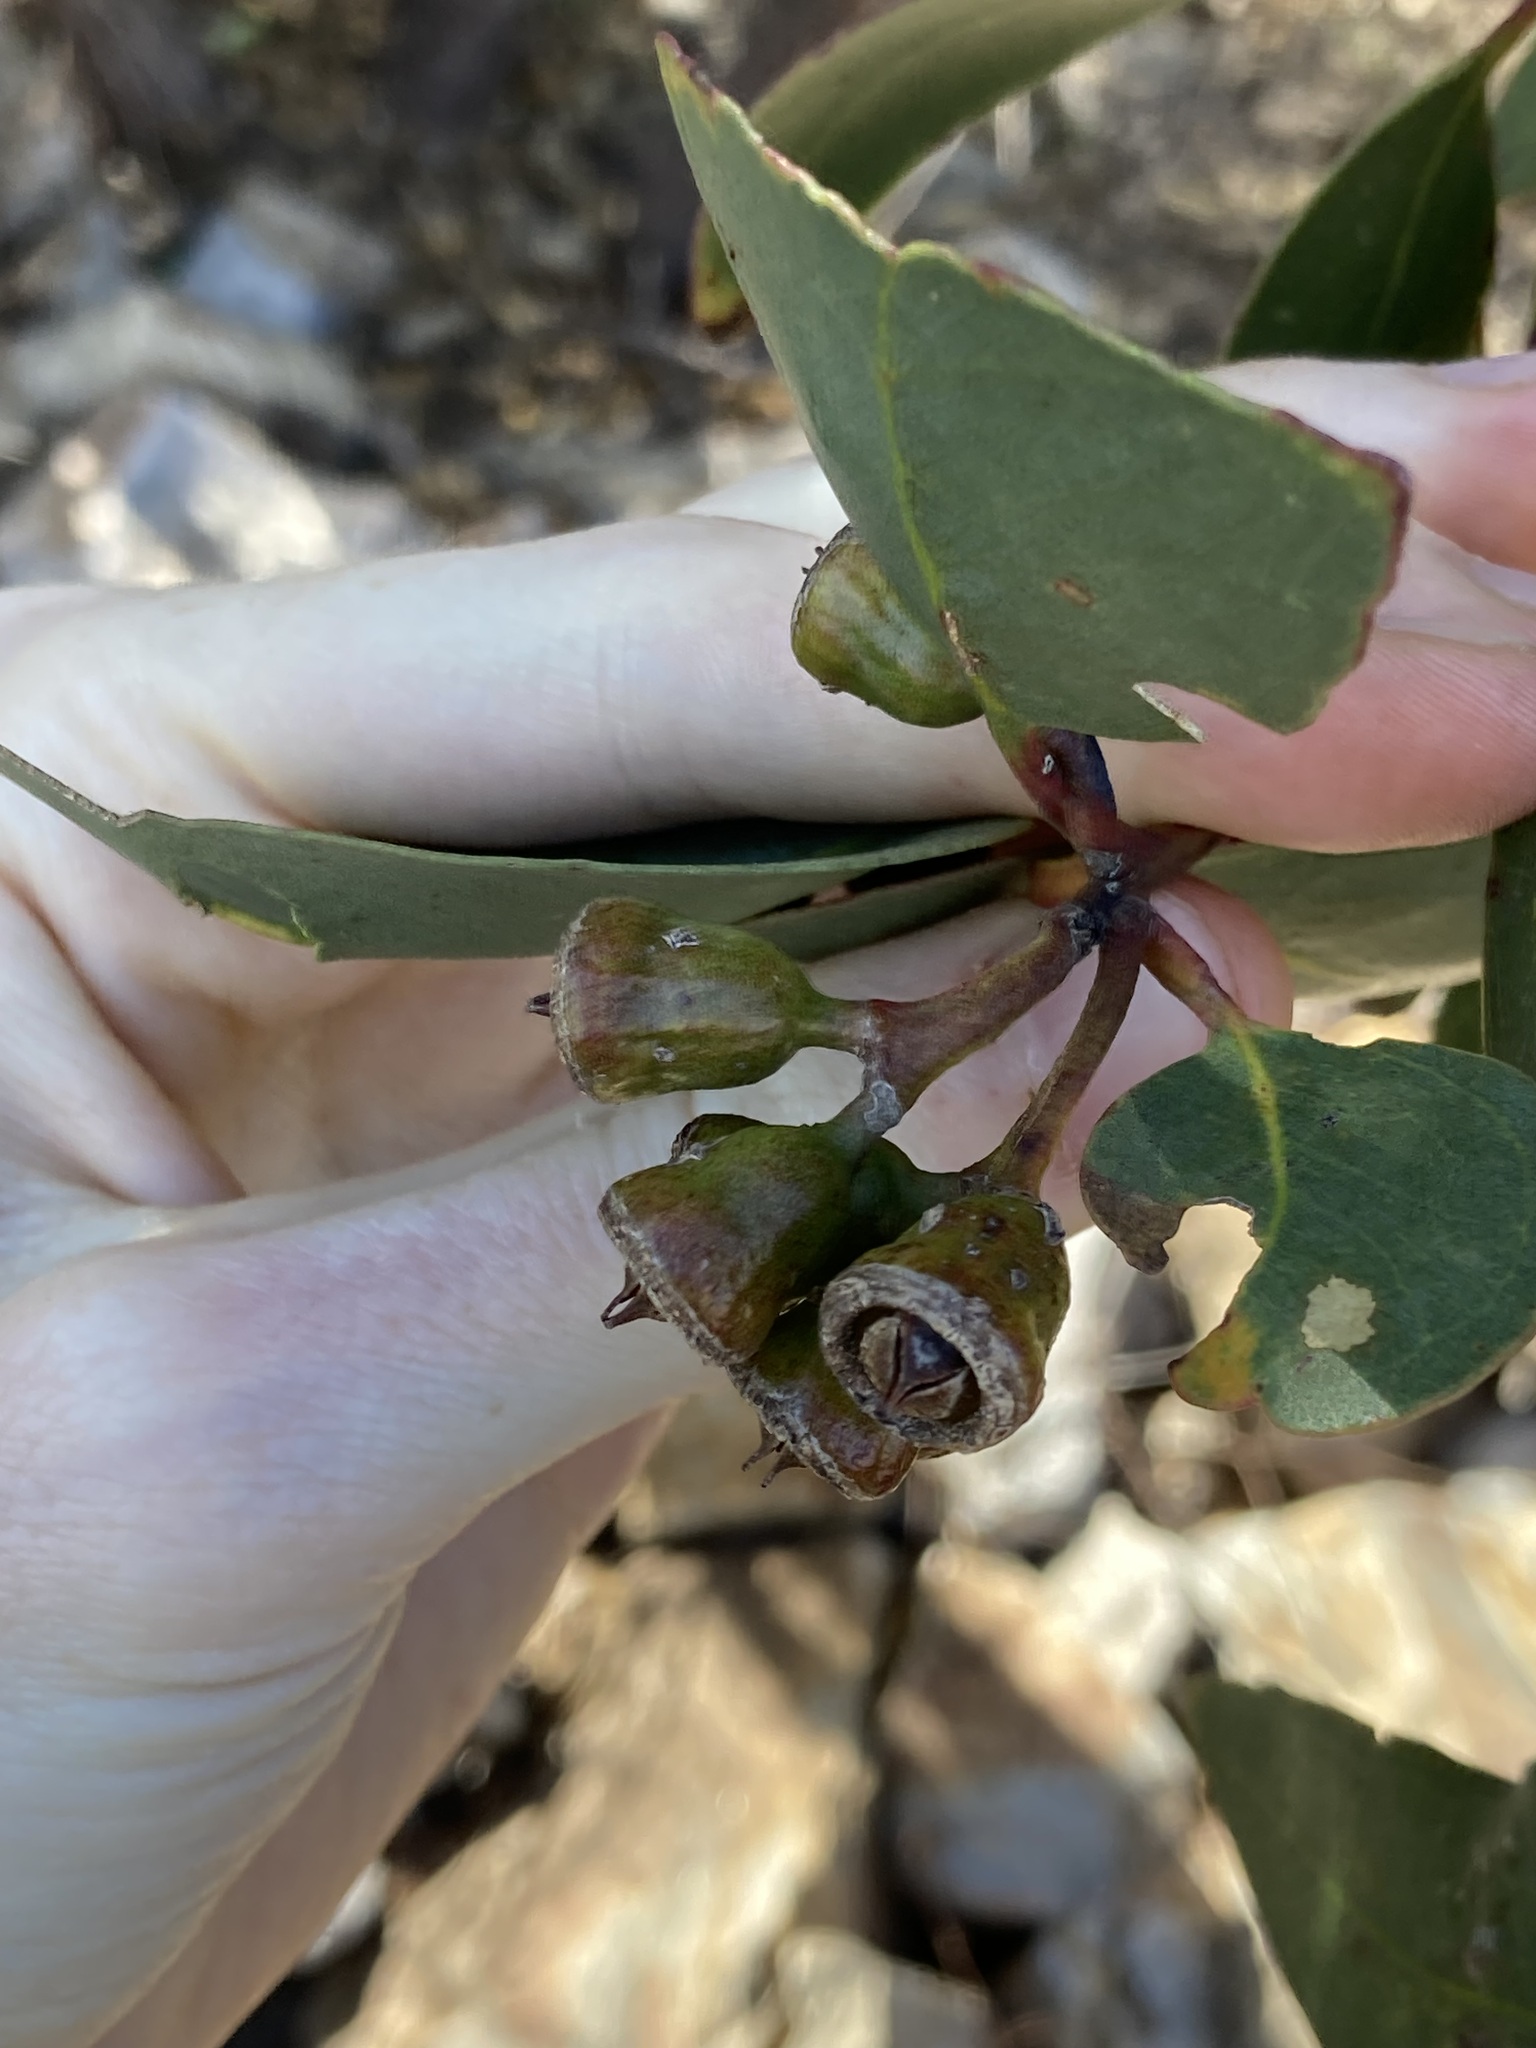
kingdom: Plantae
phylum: Tracheophyta
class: Magnoliopsida
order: Myrtales
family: Myrtaceae
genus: Eucalyptus
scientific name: Eucalyptus occidentalis
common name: Swamp yate
